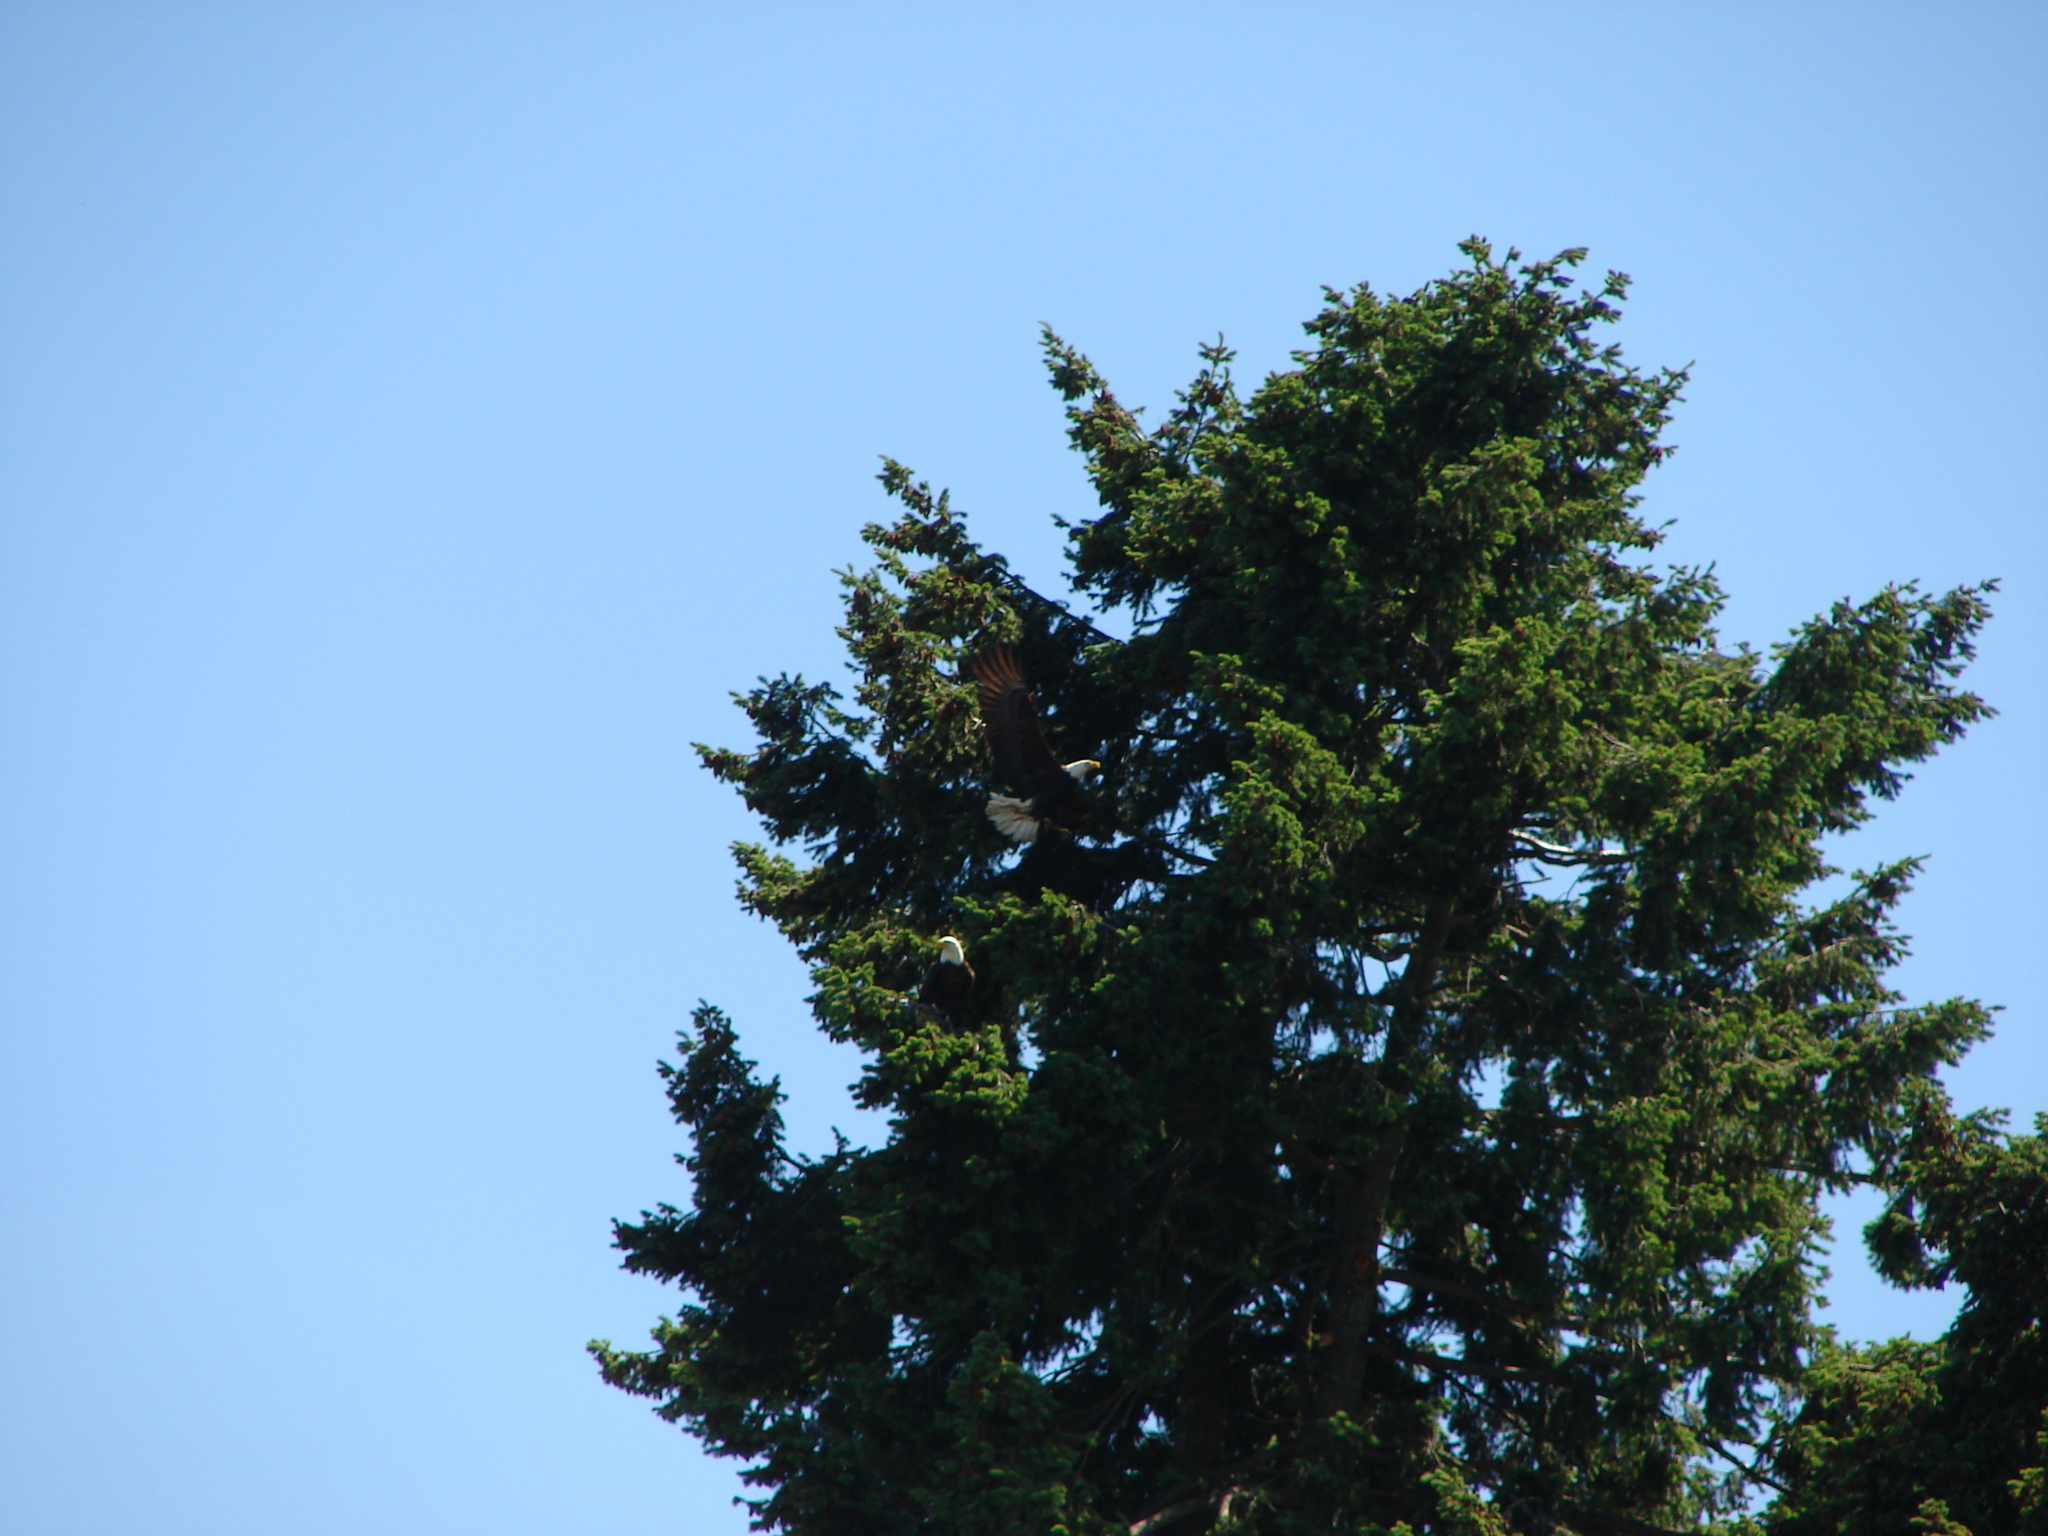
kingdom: Animalia
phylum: Chordata
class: Aves
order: Accipitriformes
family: Accipitridae
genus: Haliaeetus
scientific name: Haliaeetus leucocephalus
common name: Bald eagle
